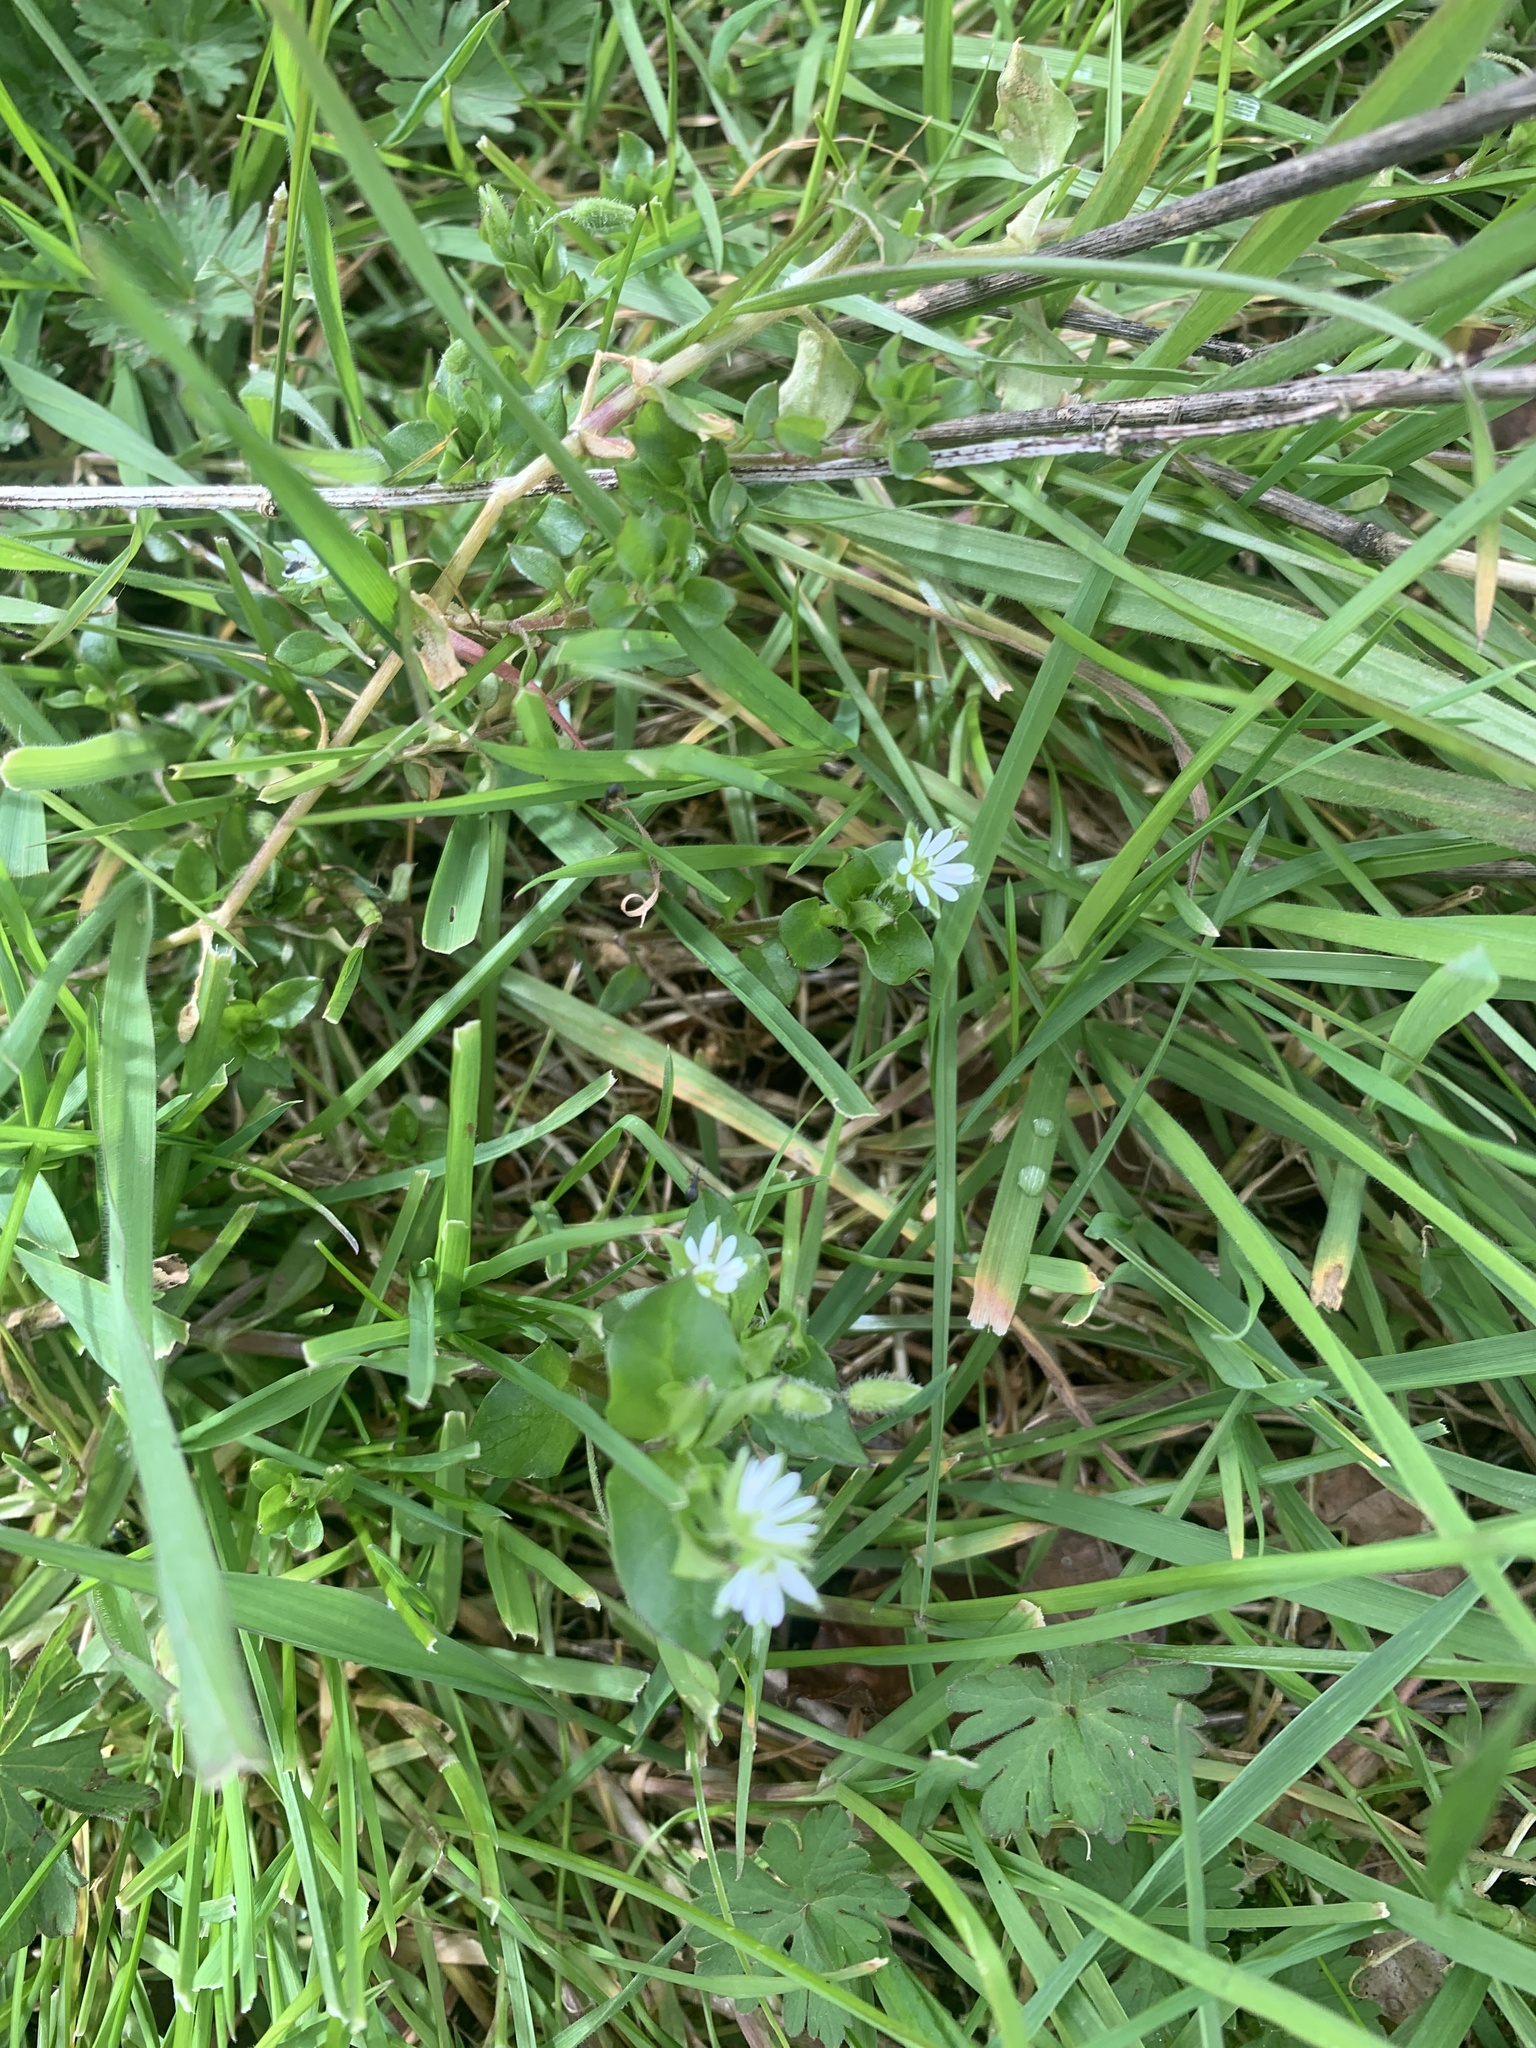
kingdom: Plantae
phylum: Tracheophyta
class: Magnoliopsida
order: Caryophyllales
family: Caryophyllaceae
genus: Stellaria
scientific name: Stellaria media
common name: Common chickweed
